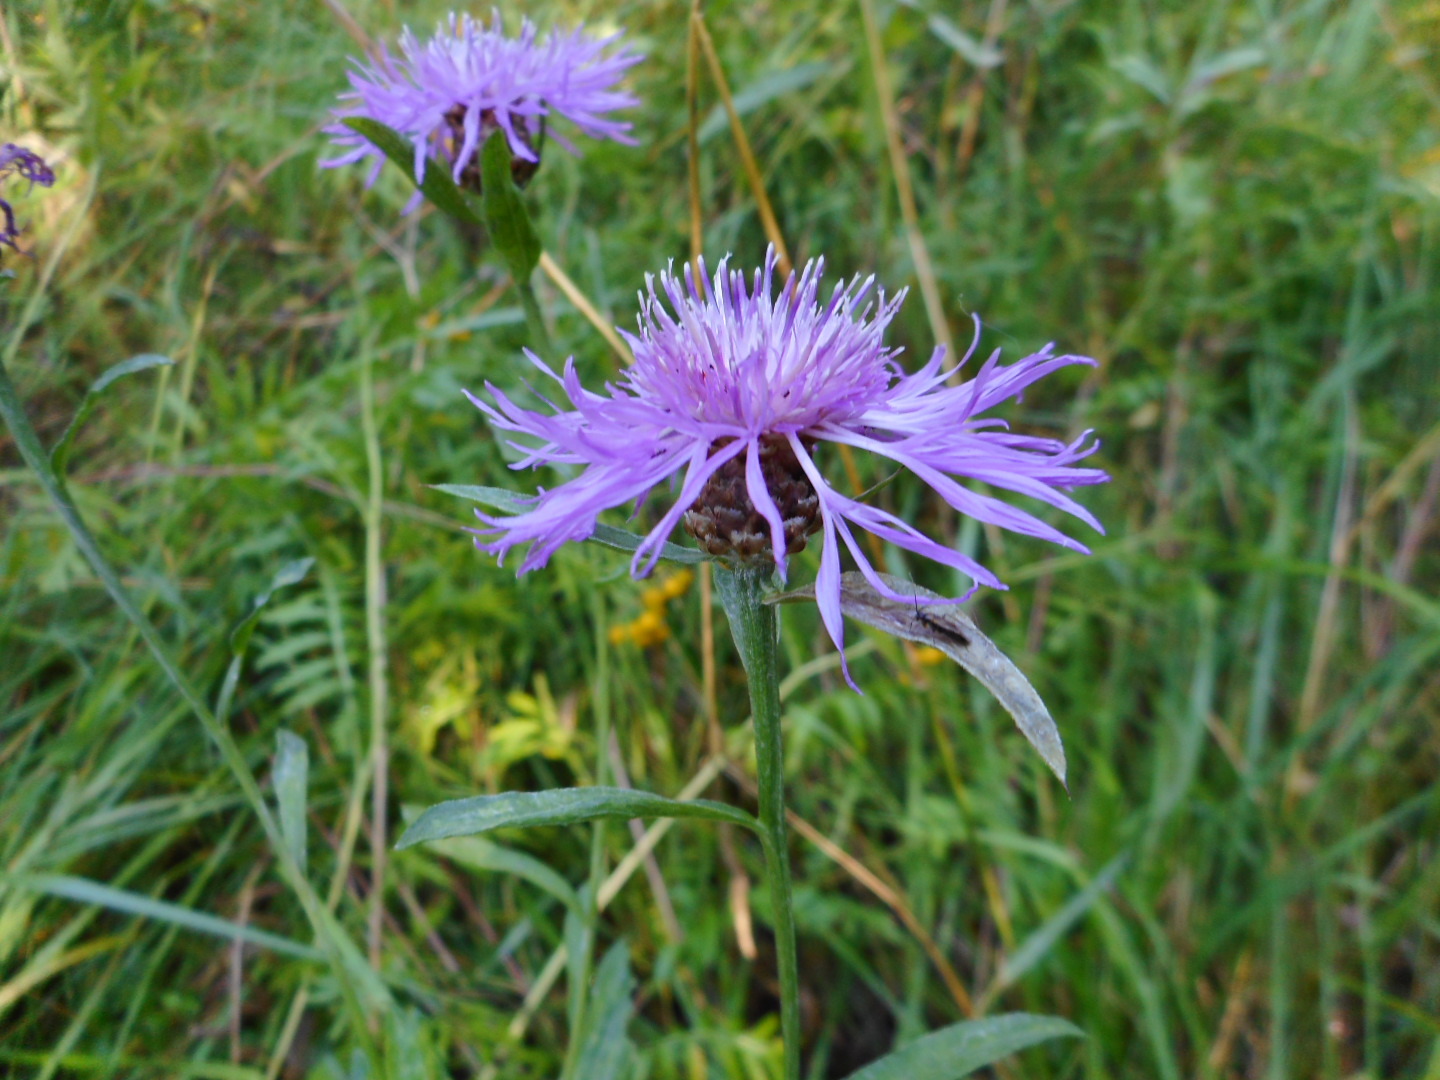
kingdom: Plantae
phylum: Tracheophyta
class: Magnoliopsida
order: Asterales
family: Asteraceae
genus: Centaurea
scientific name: Centaurea jacea
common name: Brown knapweed
